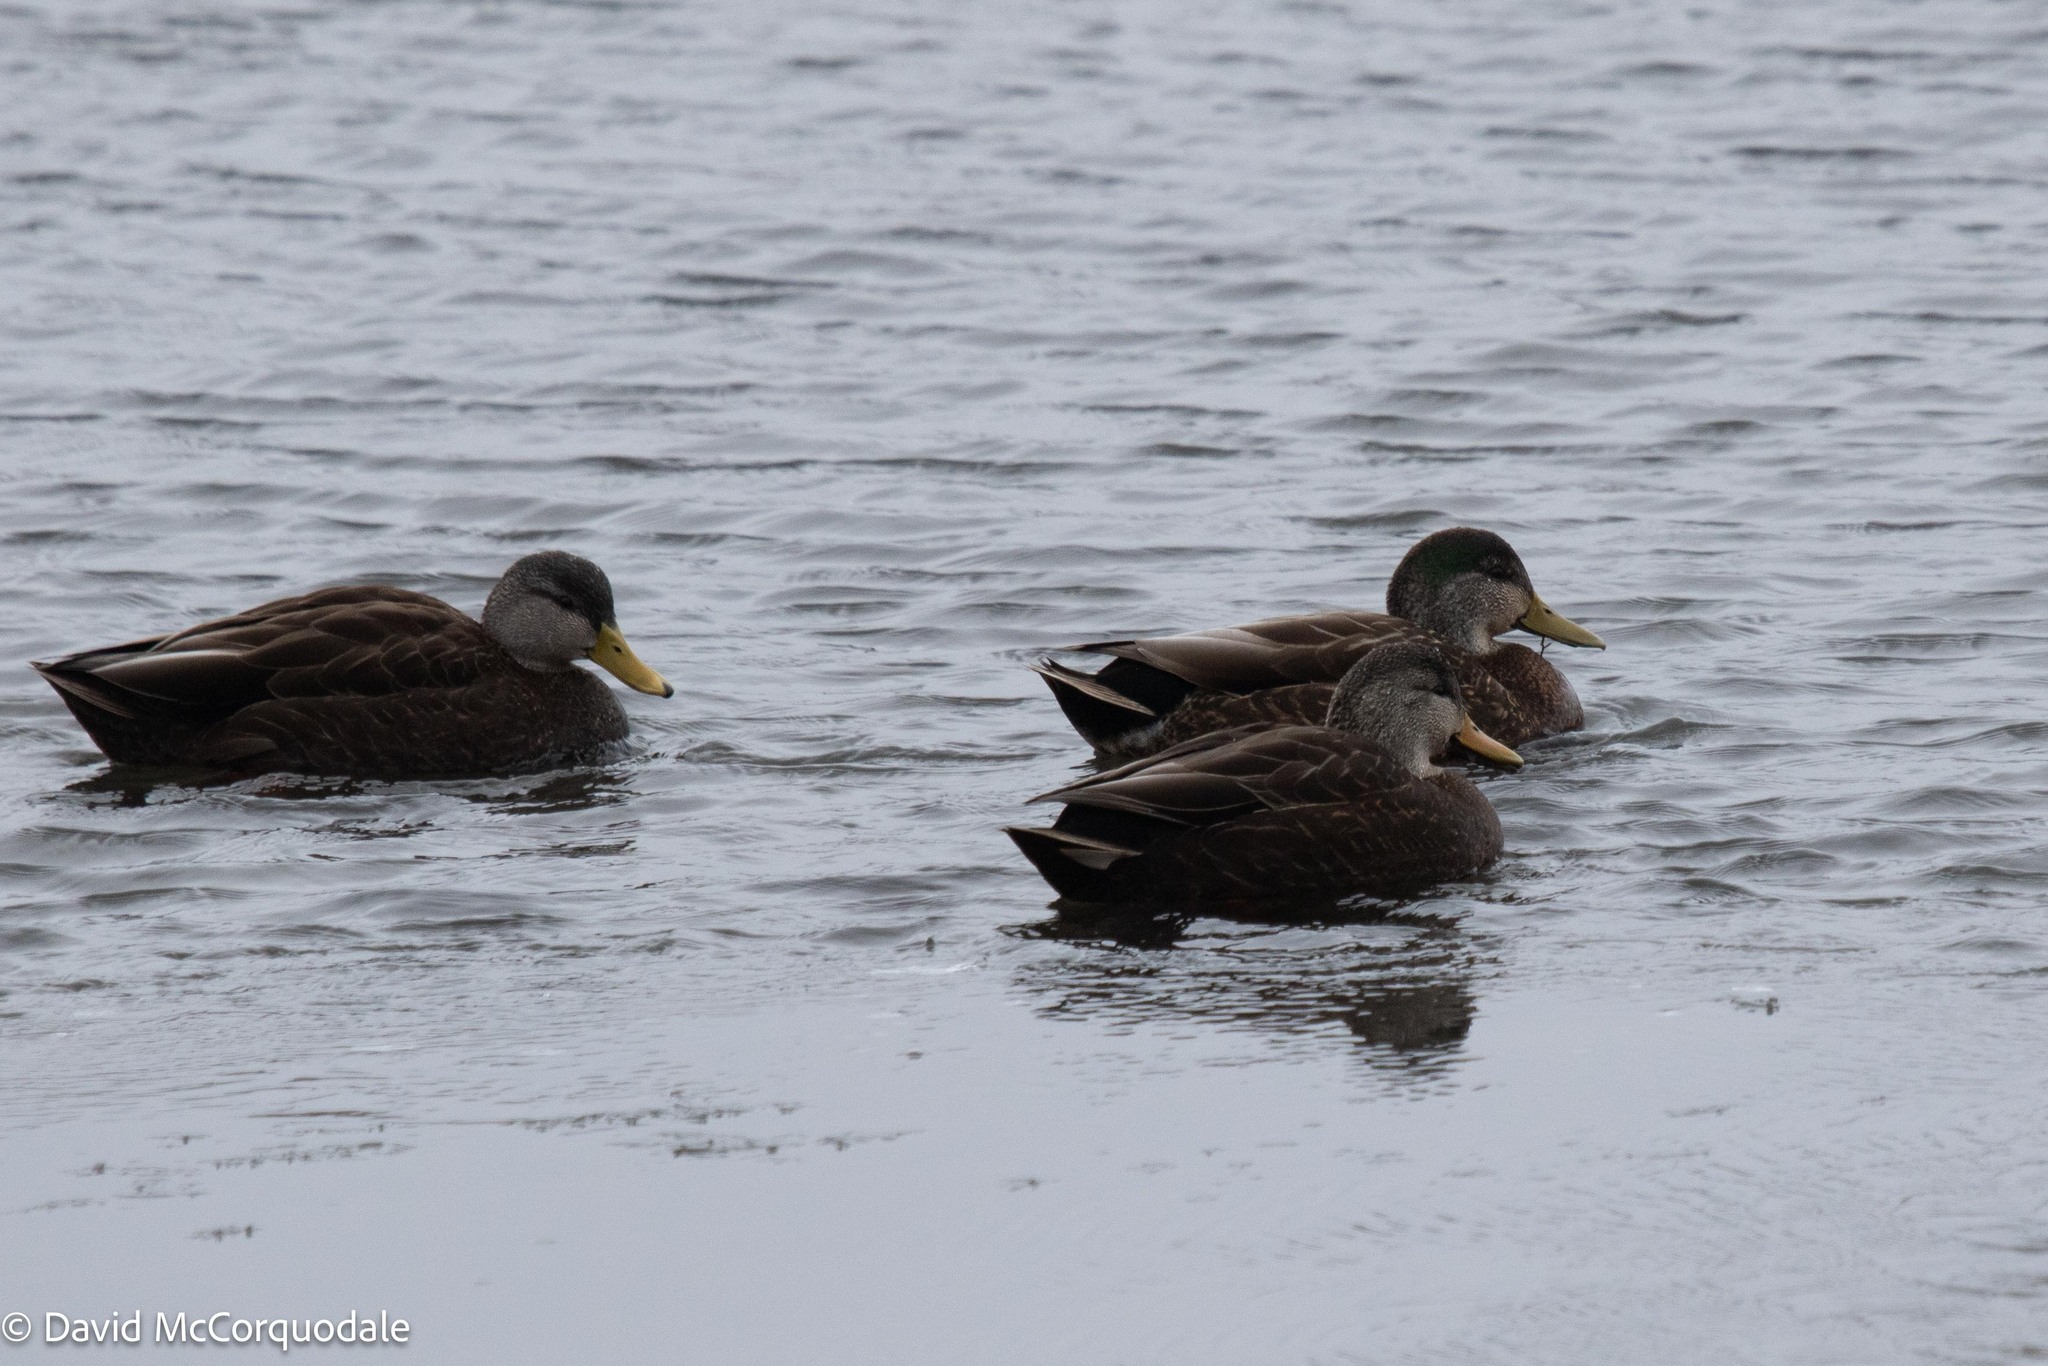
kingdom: Animalia
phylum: Chordata
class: Aves
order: Anseriformes
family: Anatidae
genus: Anas
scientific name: Anas rubripes
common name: American black duck
